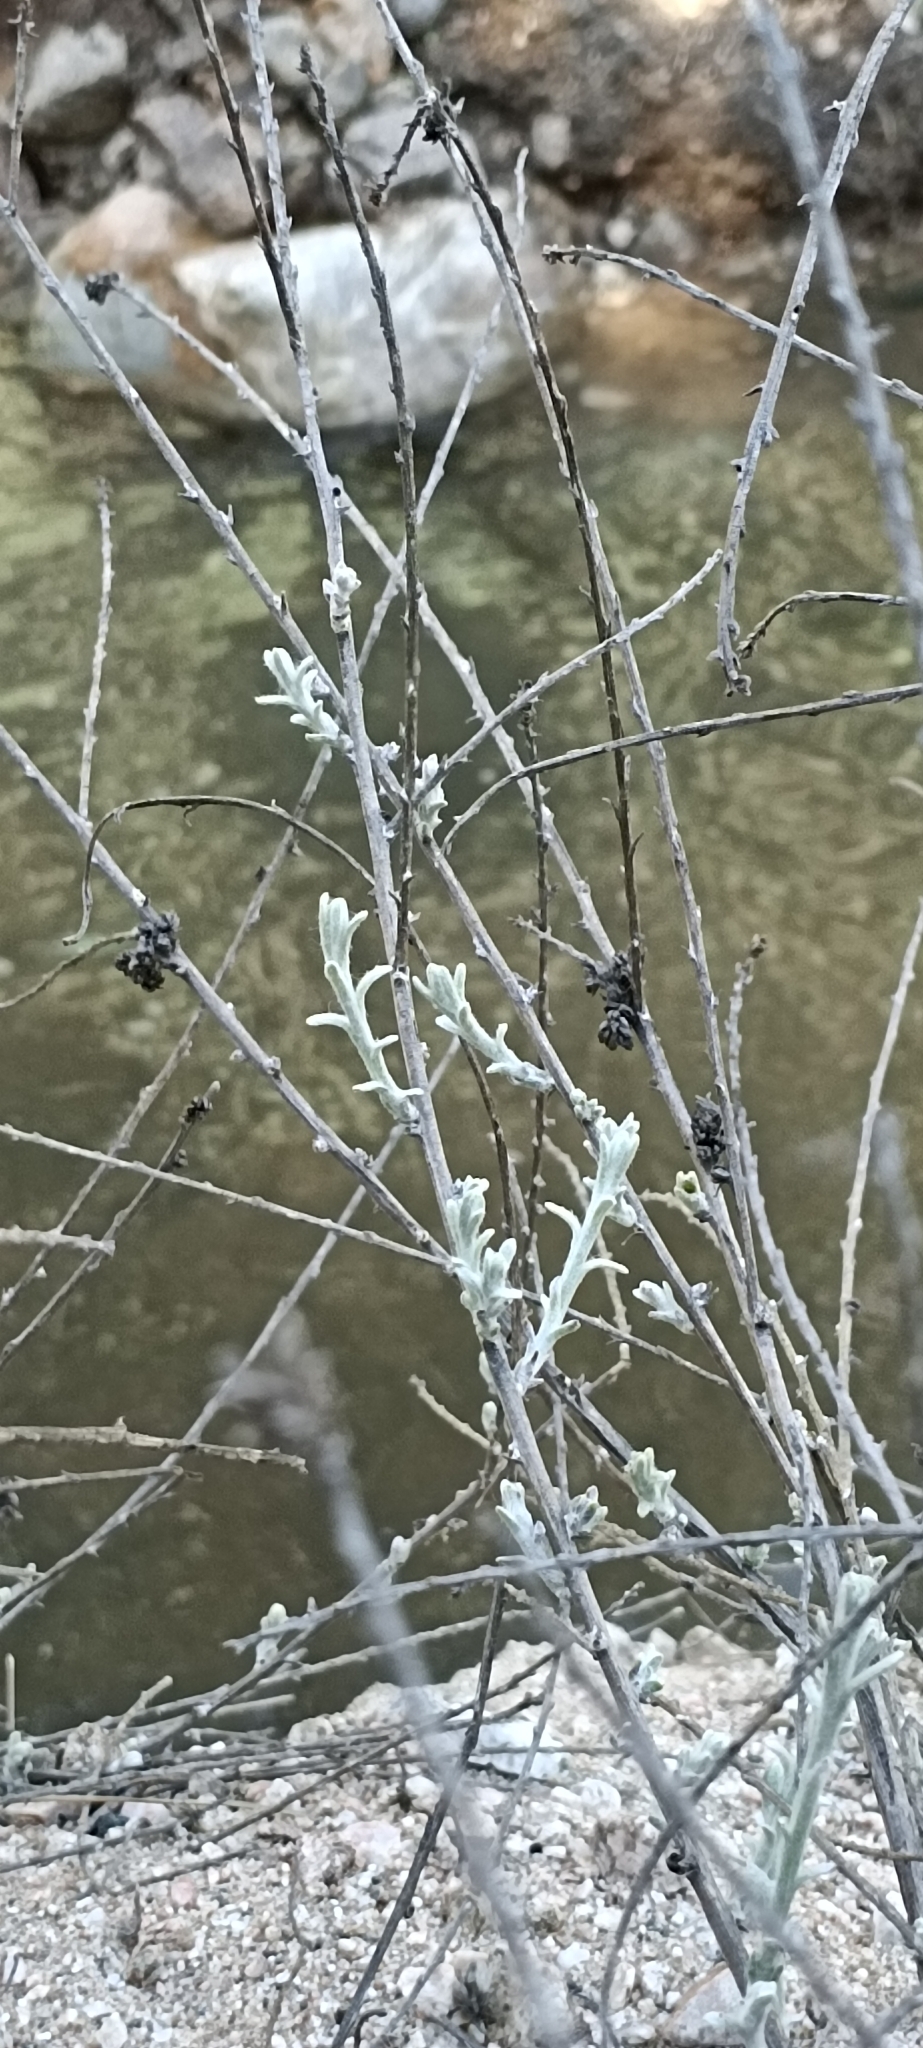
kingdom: Plantae
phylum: Tracheophyta
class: Magnoliopsida
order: Asterales
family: Asteraceae
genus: Lepidospartum
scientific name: Lepidospartum squamatum
